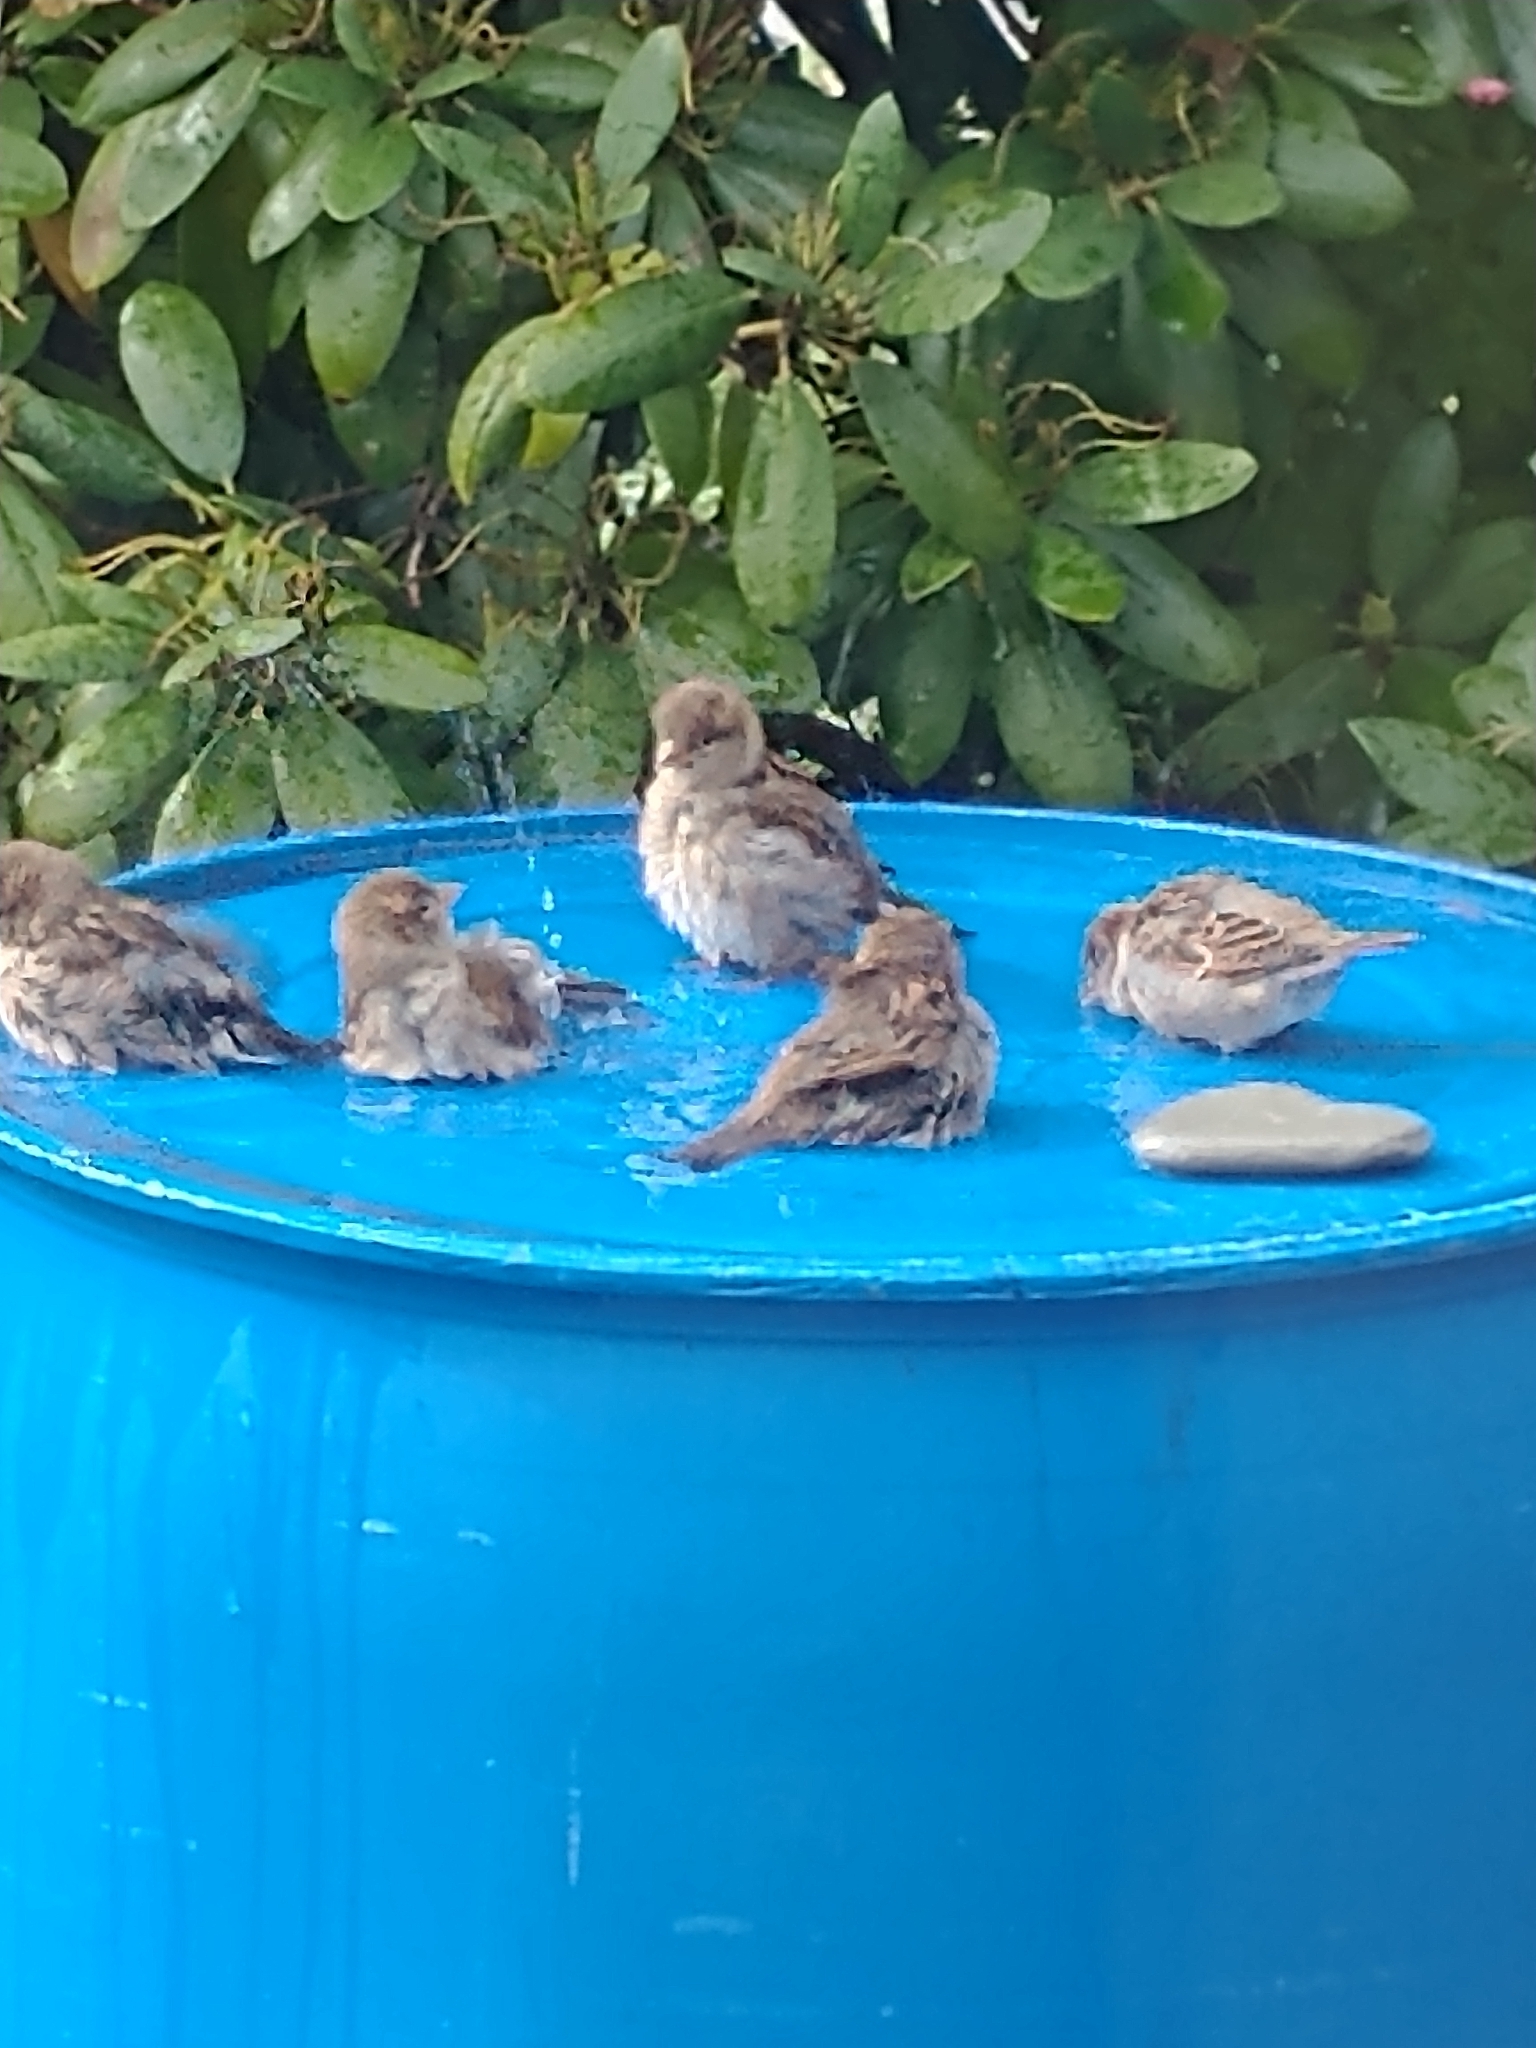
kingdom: Animalia
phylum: Chordata
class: Aves
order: Passeriformes
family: Passeridae
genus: Passer
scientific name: Passer domesticus
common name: House sparrow
